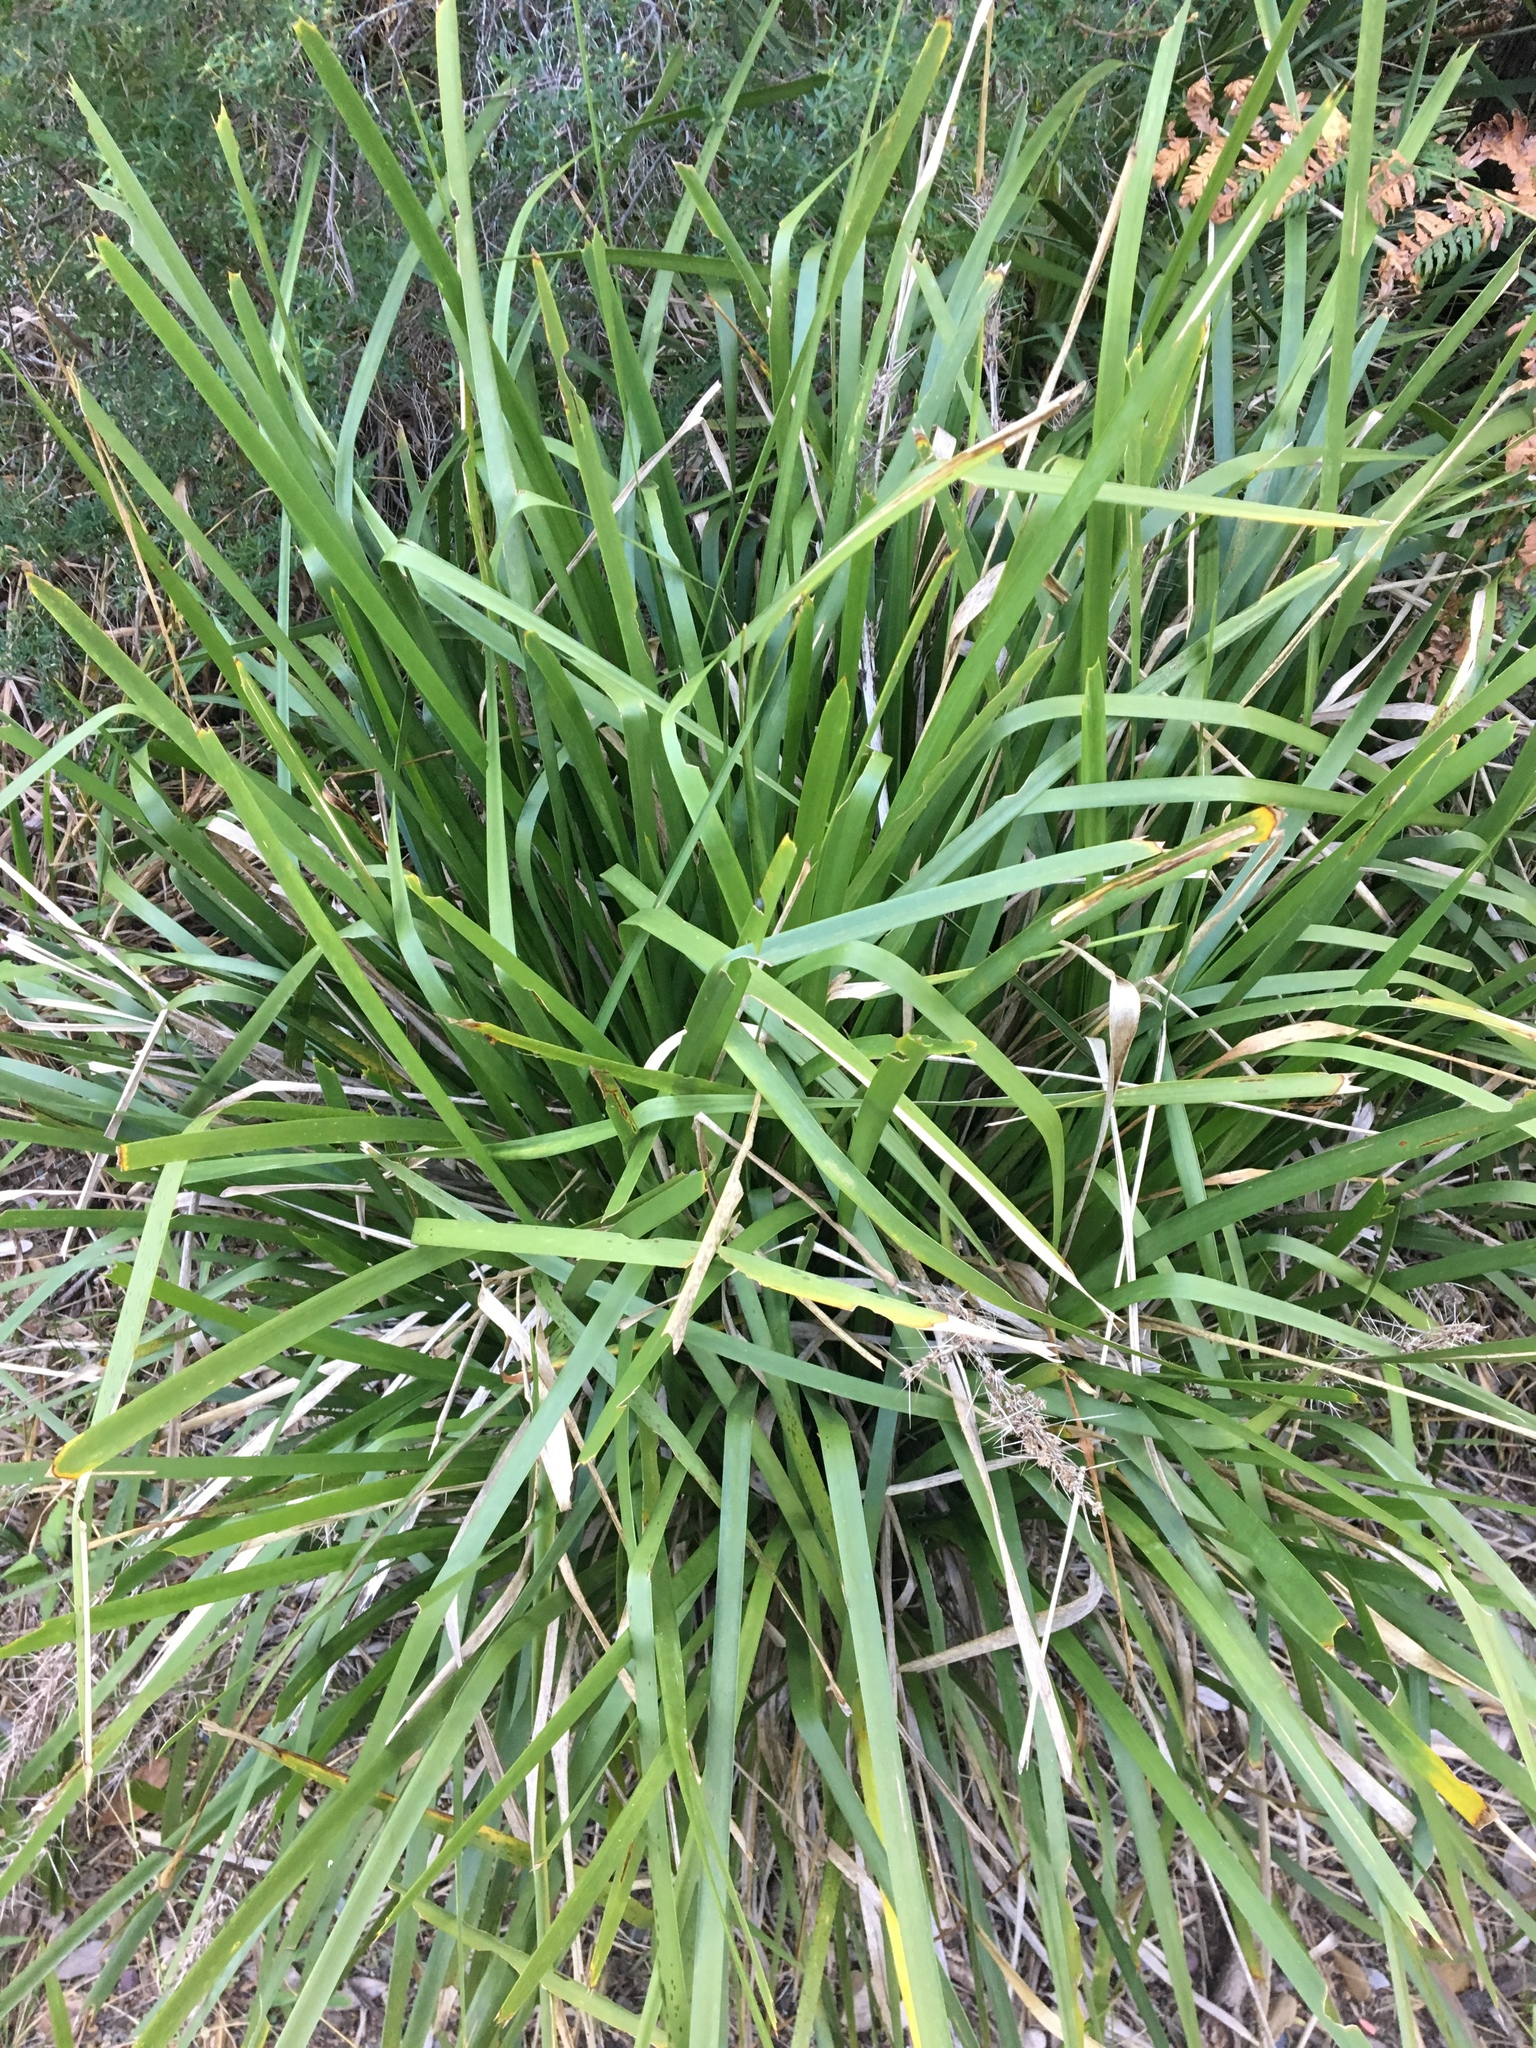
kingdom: Plantae
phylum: Tracheophyta
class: Liliopsida
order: Asparagales
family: Asparagaceae
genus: Lomandra
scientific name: Lomandra longifolia
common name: Longleaf mat-rush
